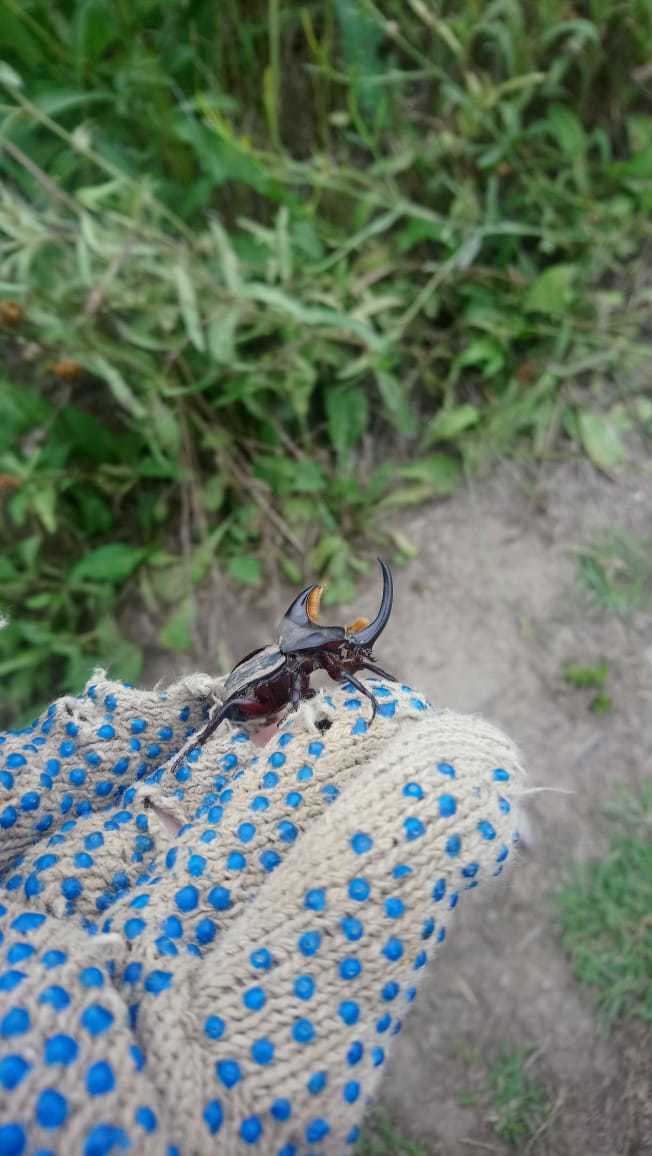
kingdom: Animalia
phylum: Arthropoda
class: Insecta
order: Coleoptera
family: Scarabaeidae
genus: Diloboderus
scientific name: Diloboderus abderus
